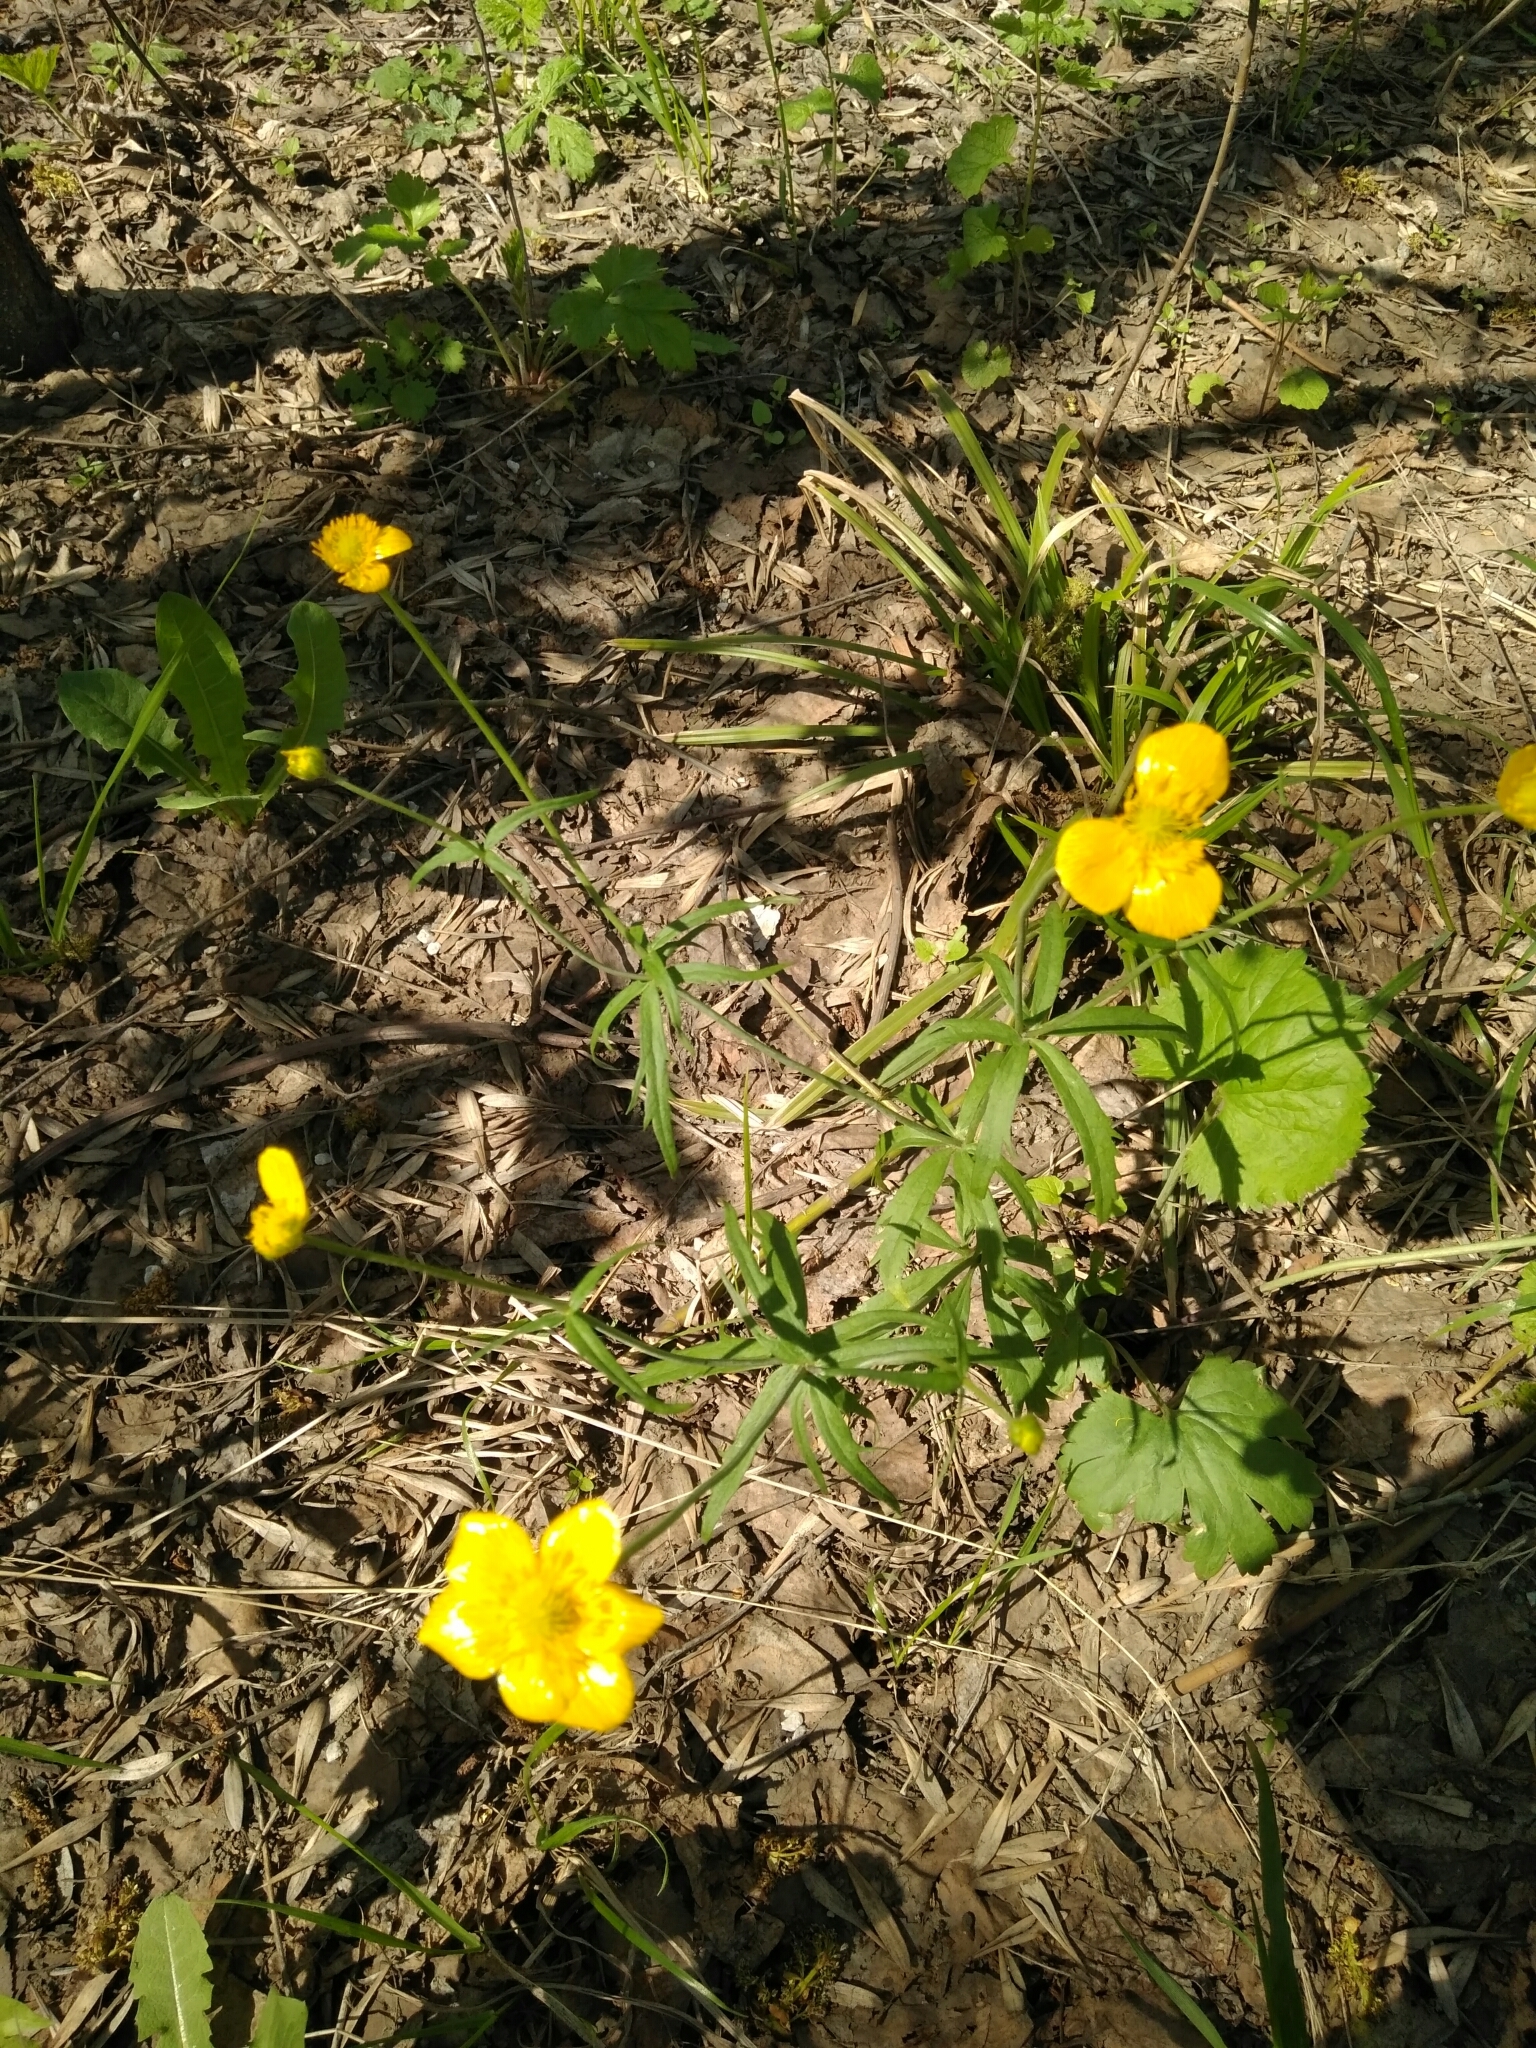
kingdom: Plantae
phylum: Tracheophyta
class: Magnoliopsida
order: Ranunculales
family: Ranunculaceae
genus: Ranunculus
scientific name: Ranunculus cassubicus
